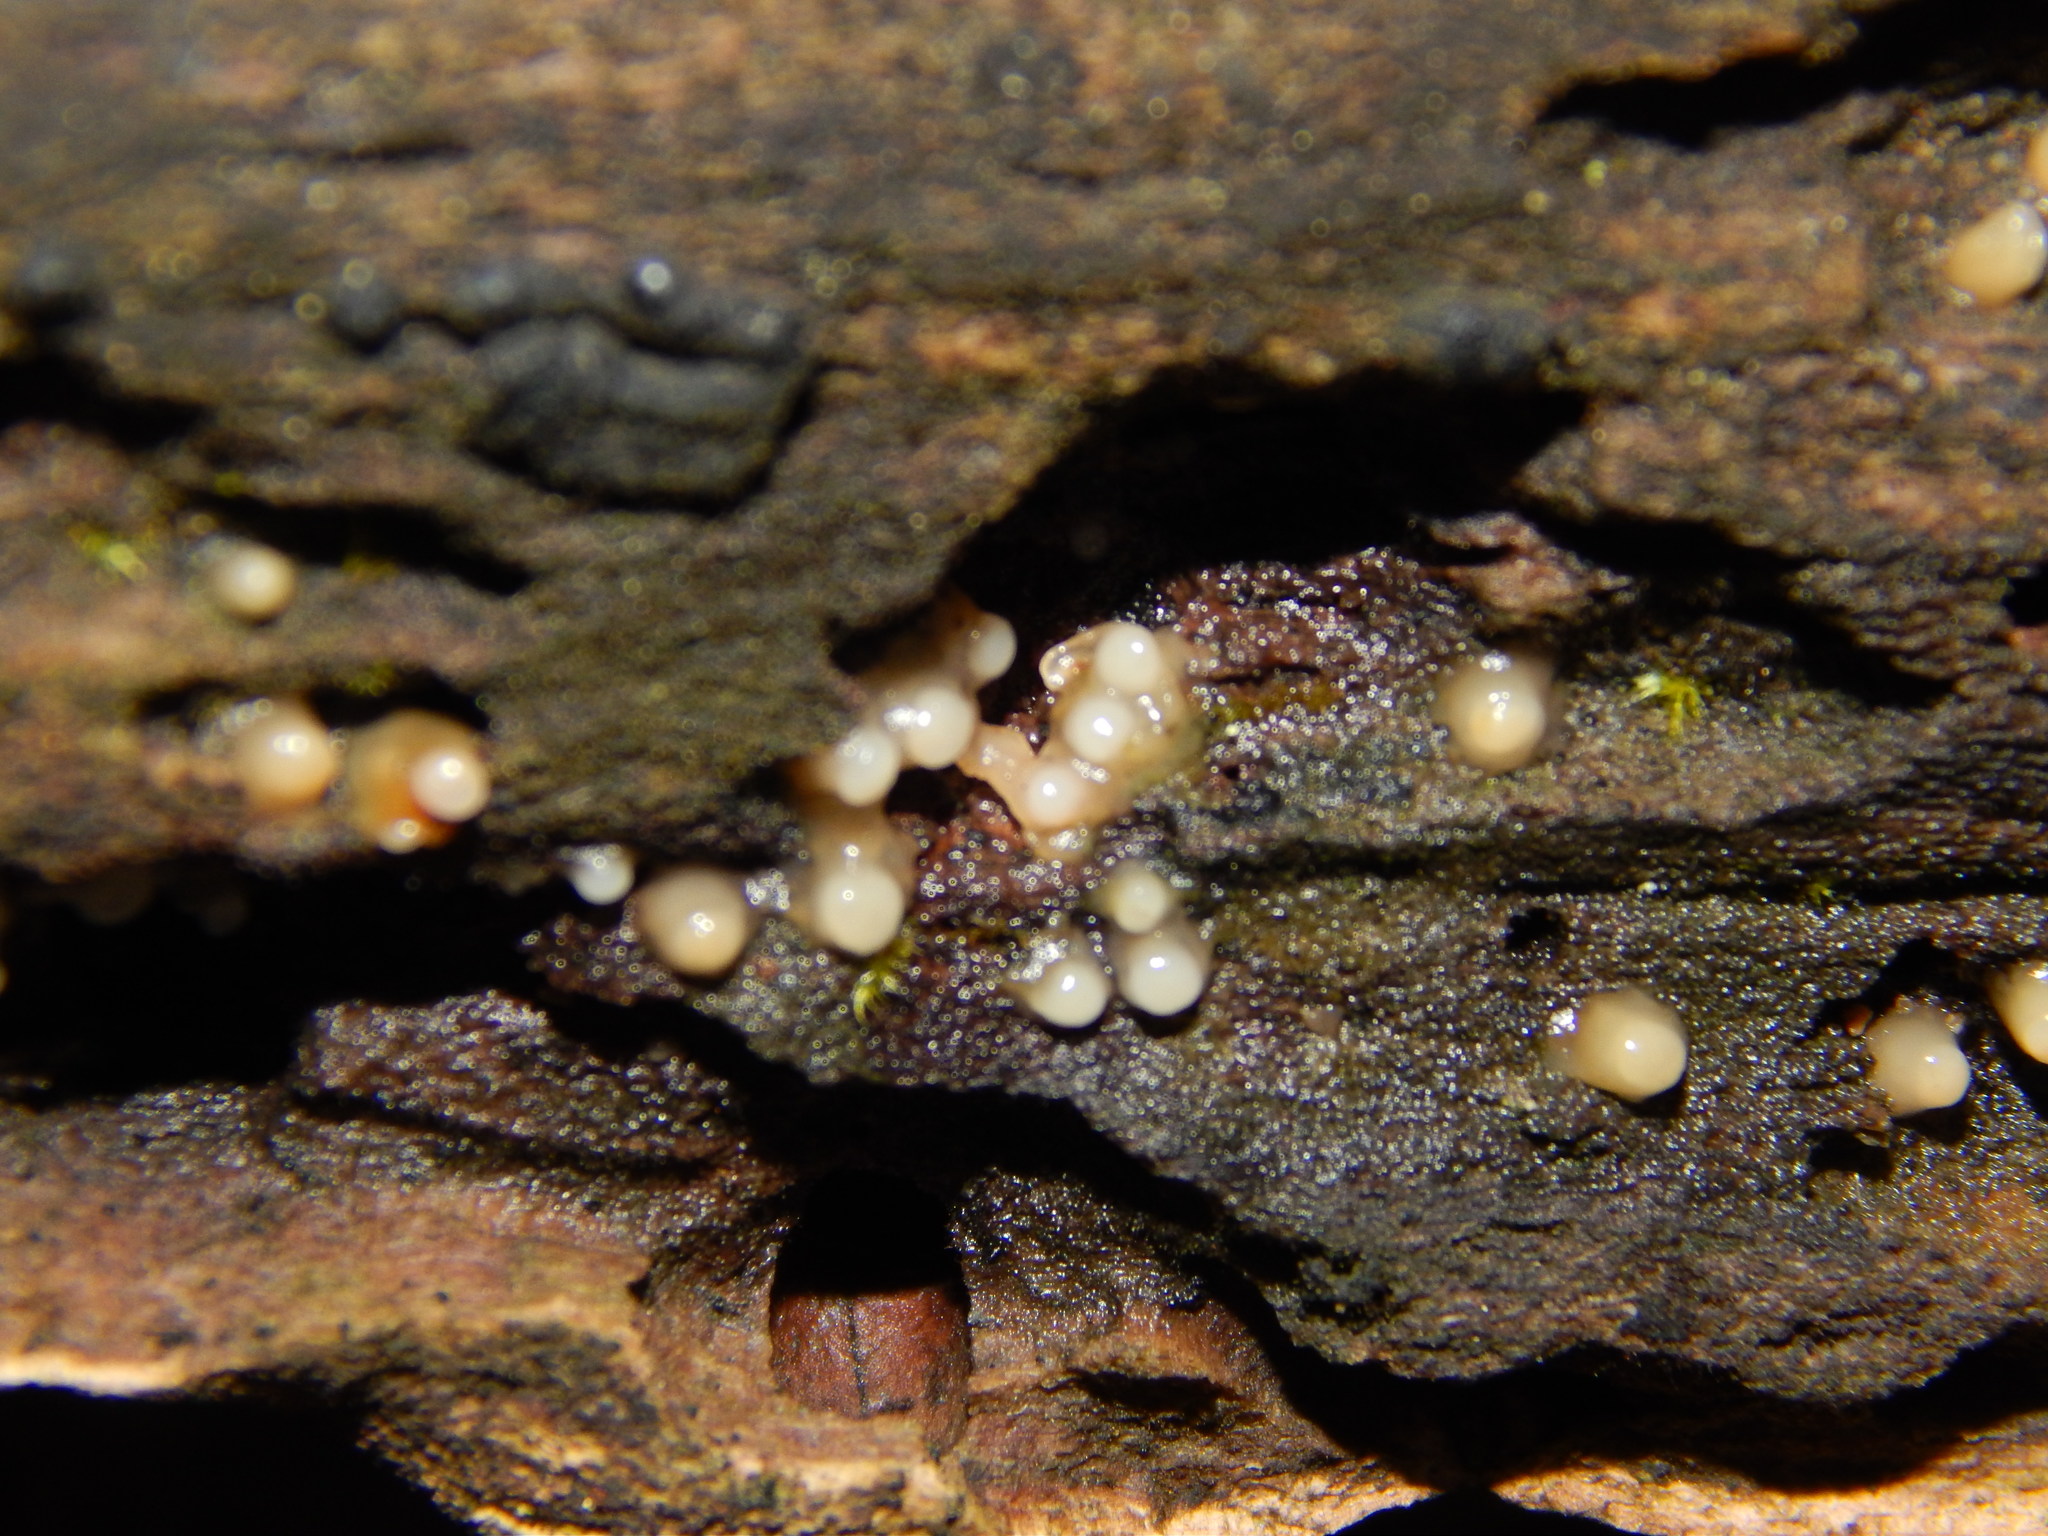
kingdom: Fungi
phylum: Basidiomycota
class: Atractiellomycetes
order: Atractiellales
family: Phleogenaceae
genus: Helicogloea
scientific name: Helicogloea compressa
